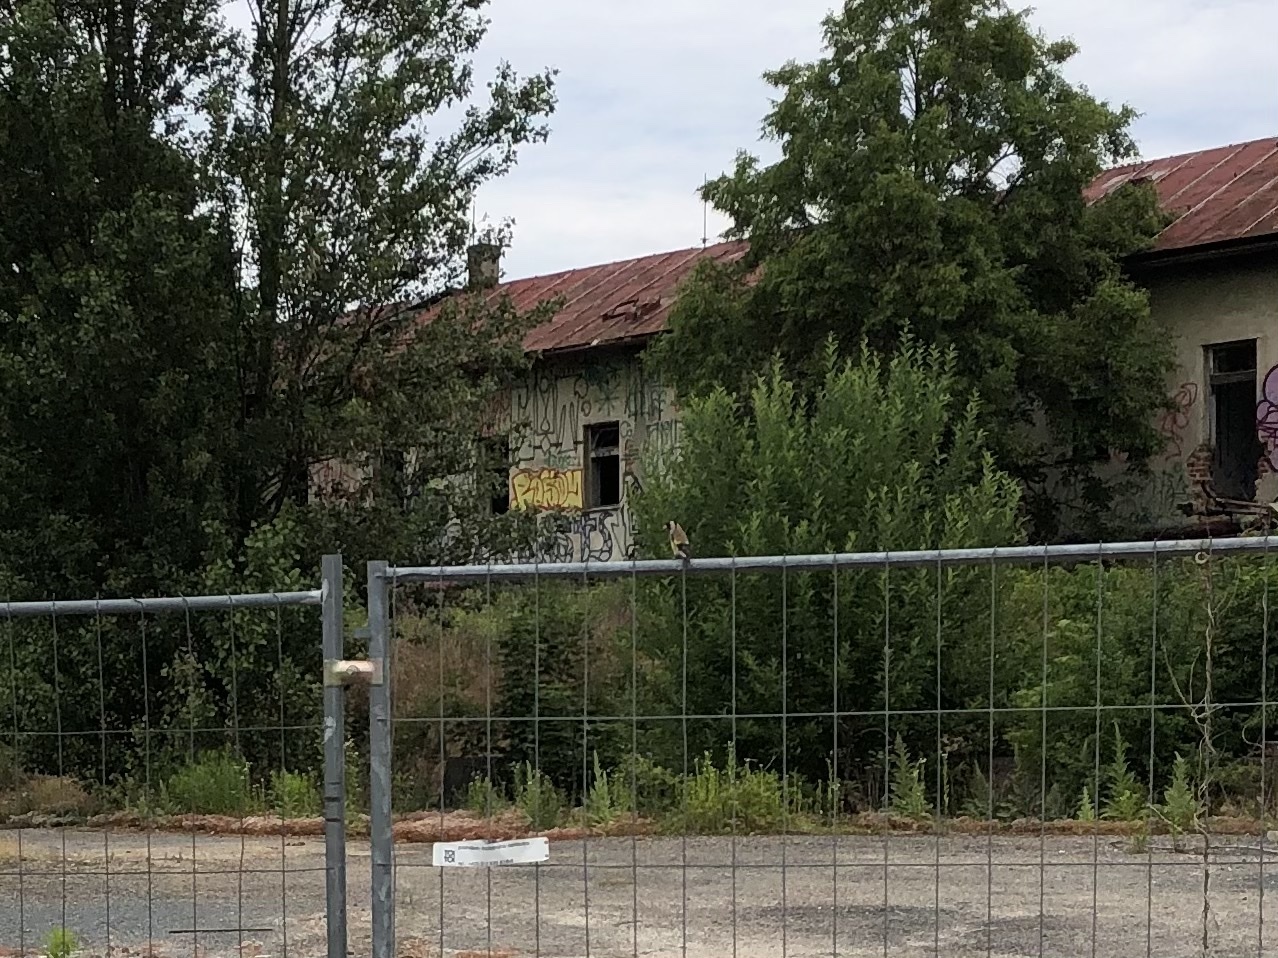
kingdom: Animalia
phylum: Chordata
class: Aves
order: Passeriformes
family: Fringillidae
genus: Carduelis
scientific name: Carduelis carduelis
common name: European goldfinch
